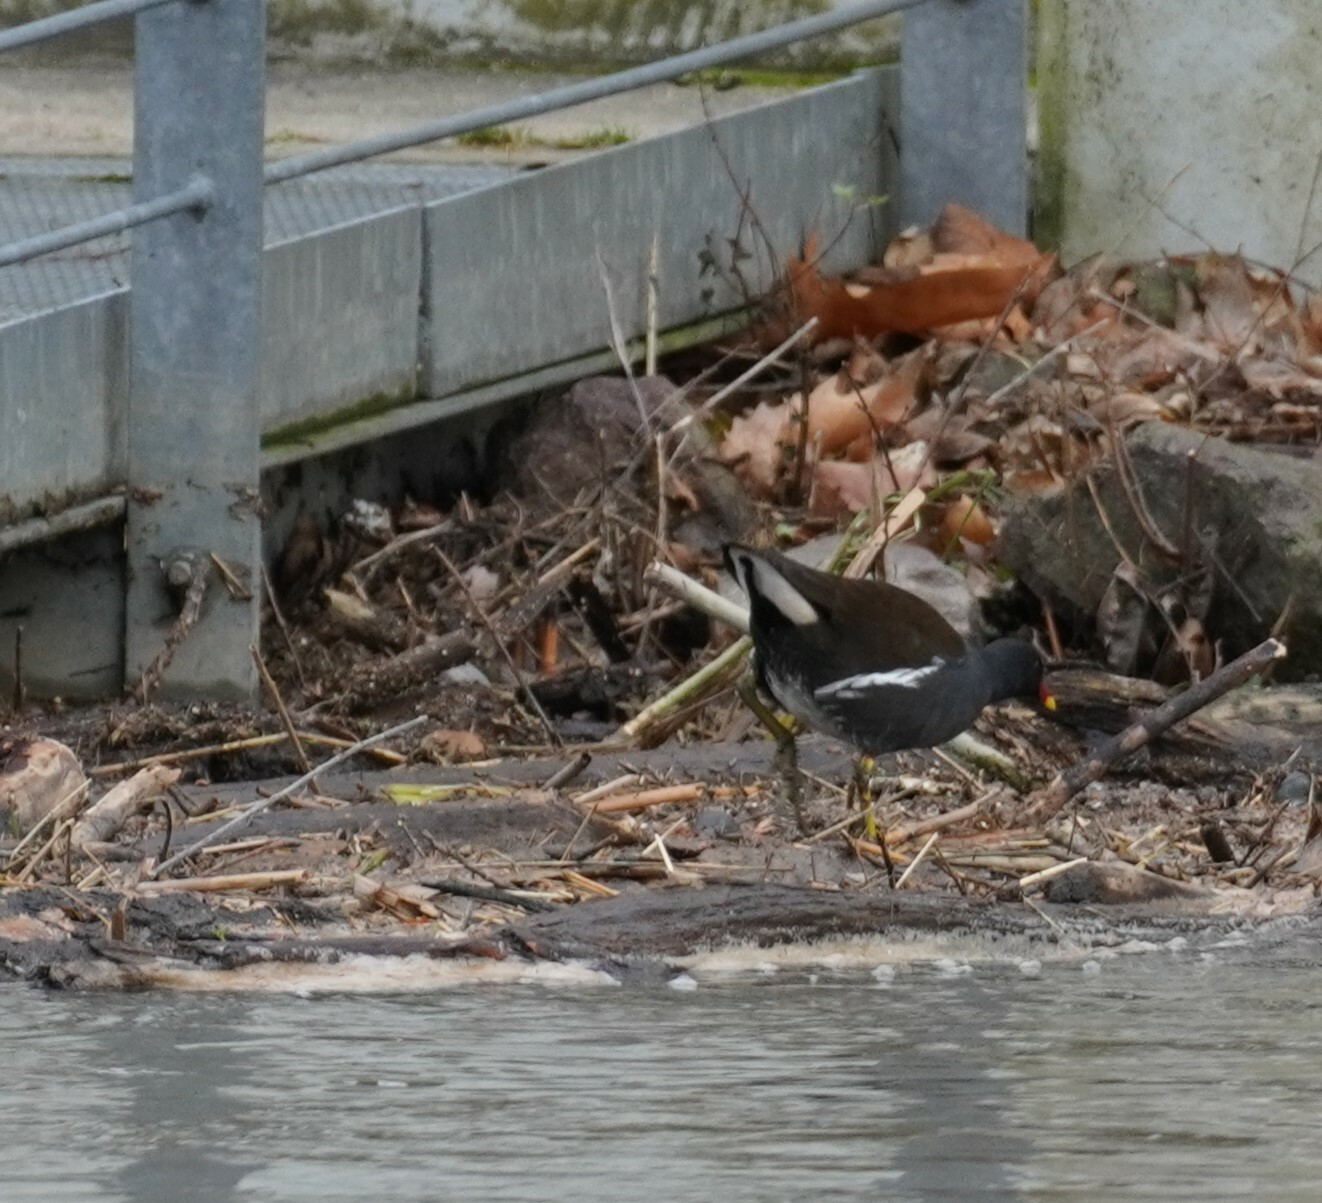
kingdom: Animalia
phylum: Chordata
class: Aves
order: Gruiformes
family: Rallidae
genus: Gallinula
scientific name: Gallinula chloropus
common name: Common moorhen
